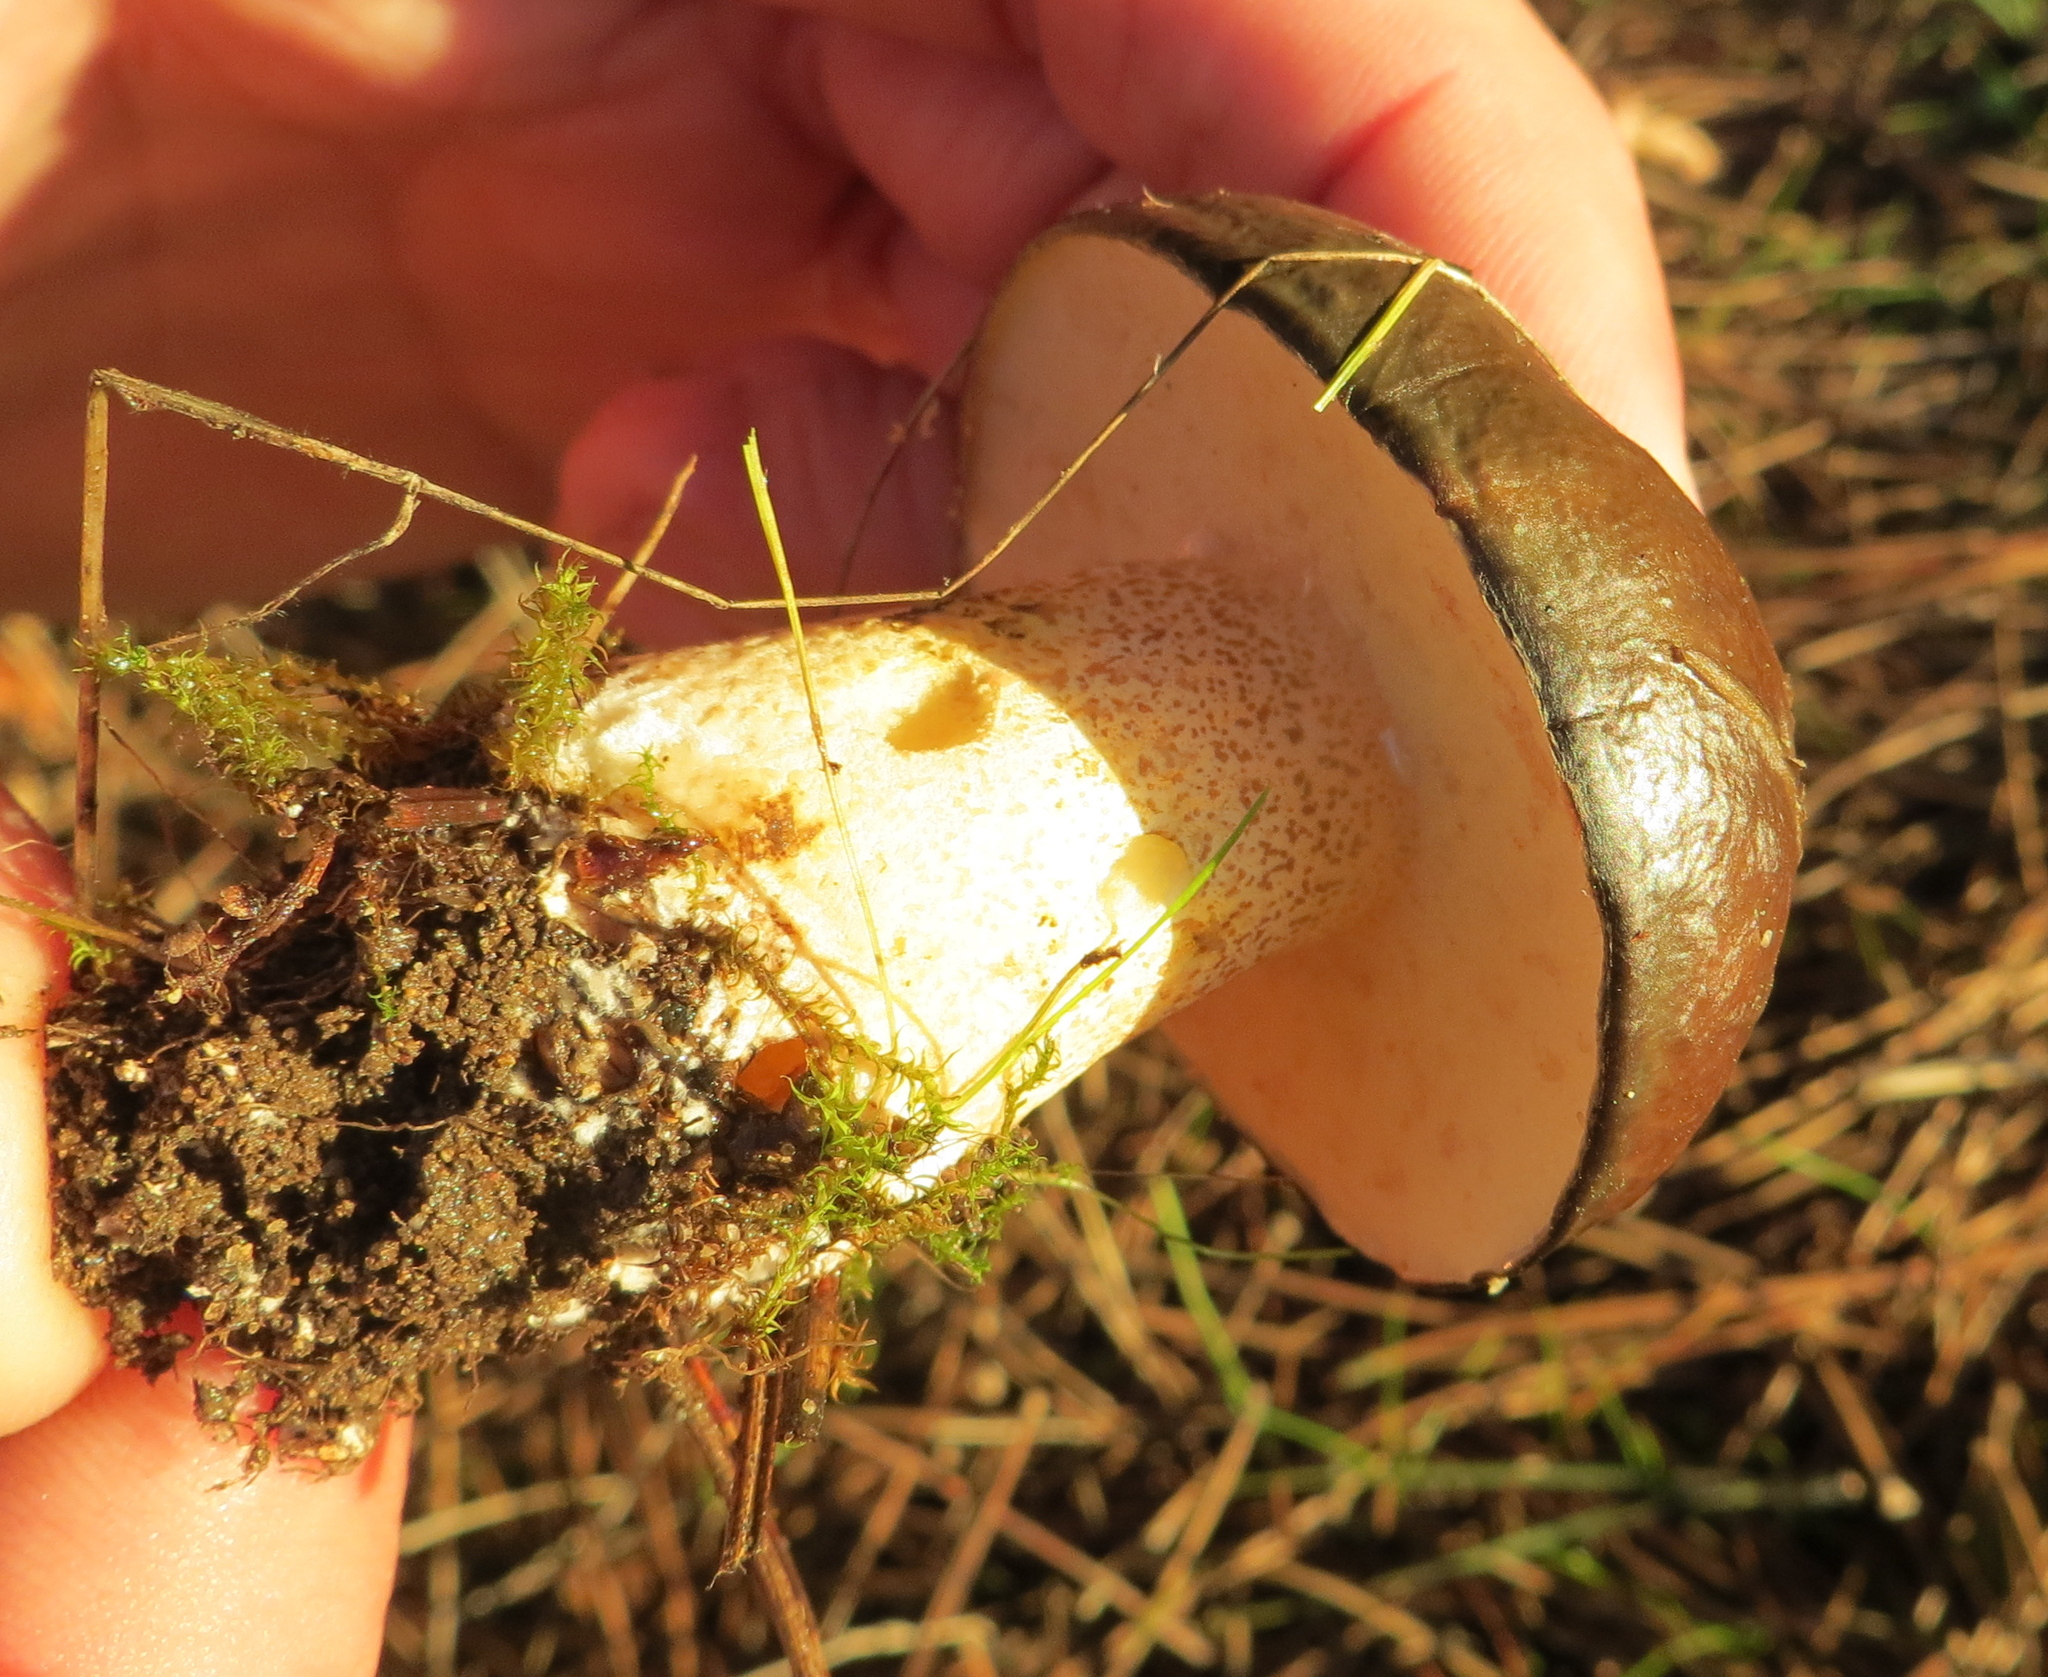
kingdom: Fungi
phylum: Basidiomycota
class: Agaricomycetes
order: Boletales
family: Suillaceae
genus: Suillus
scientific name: Suillus pungens
